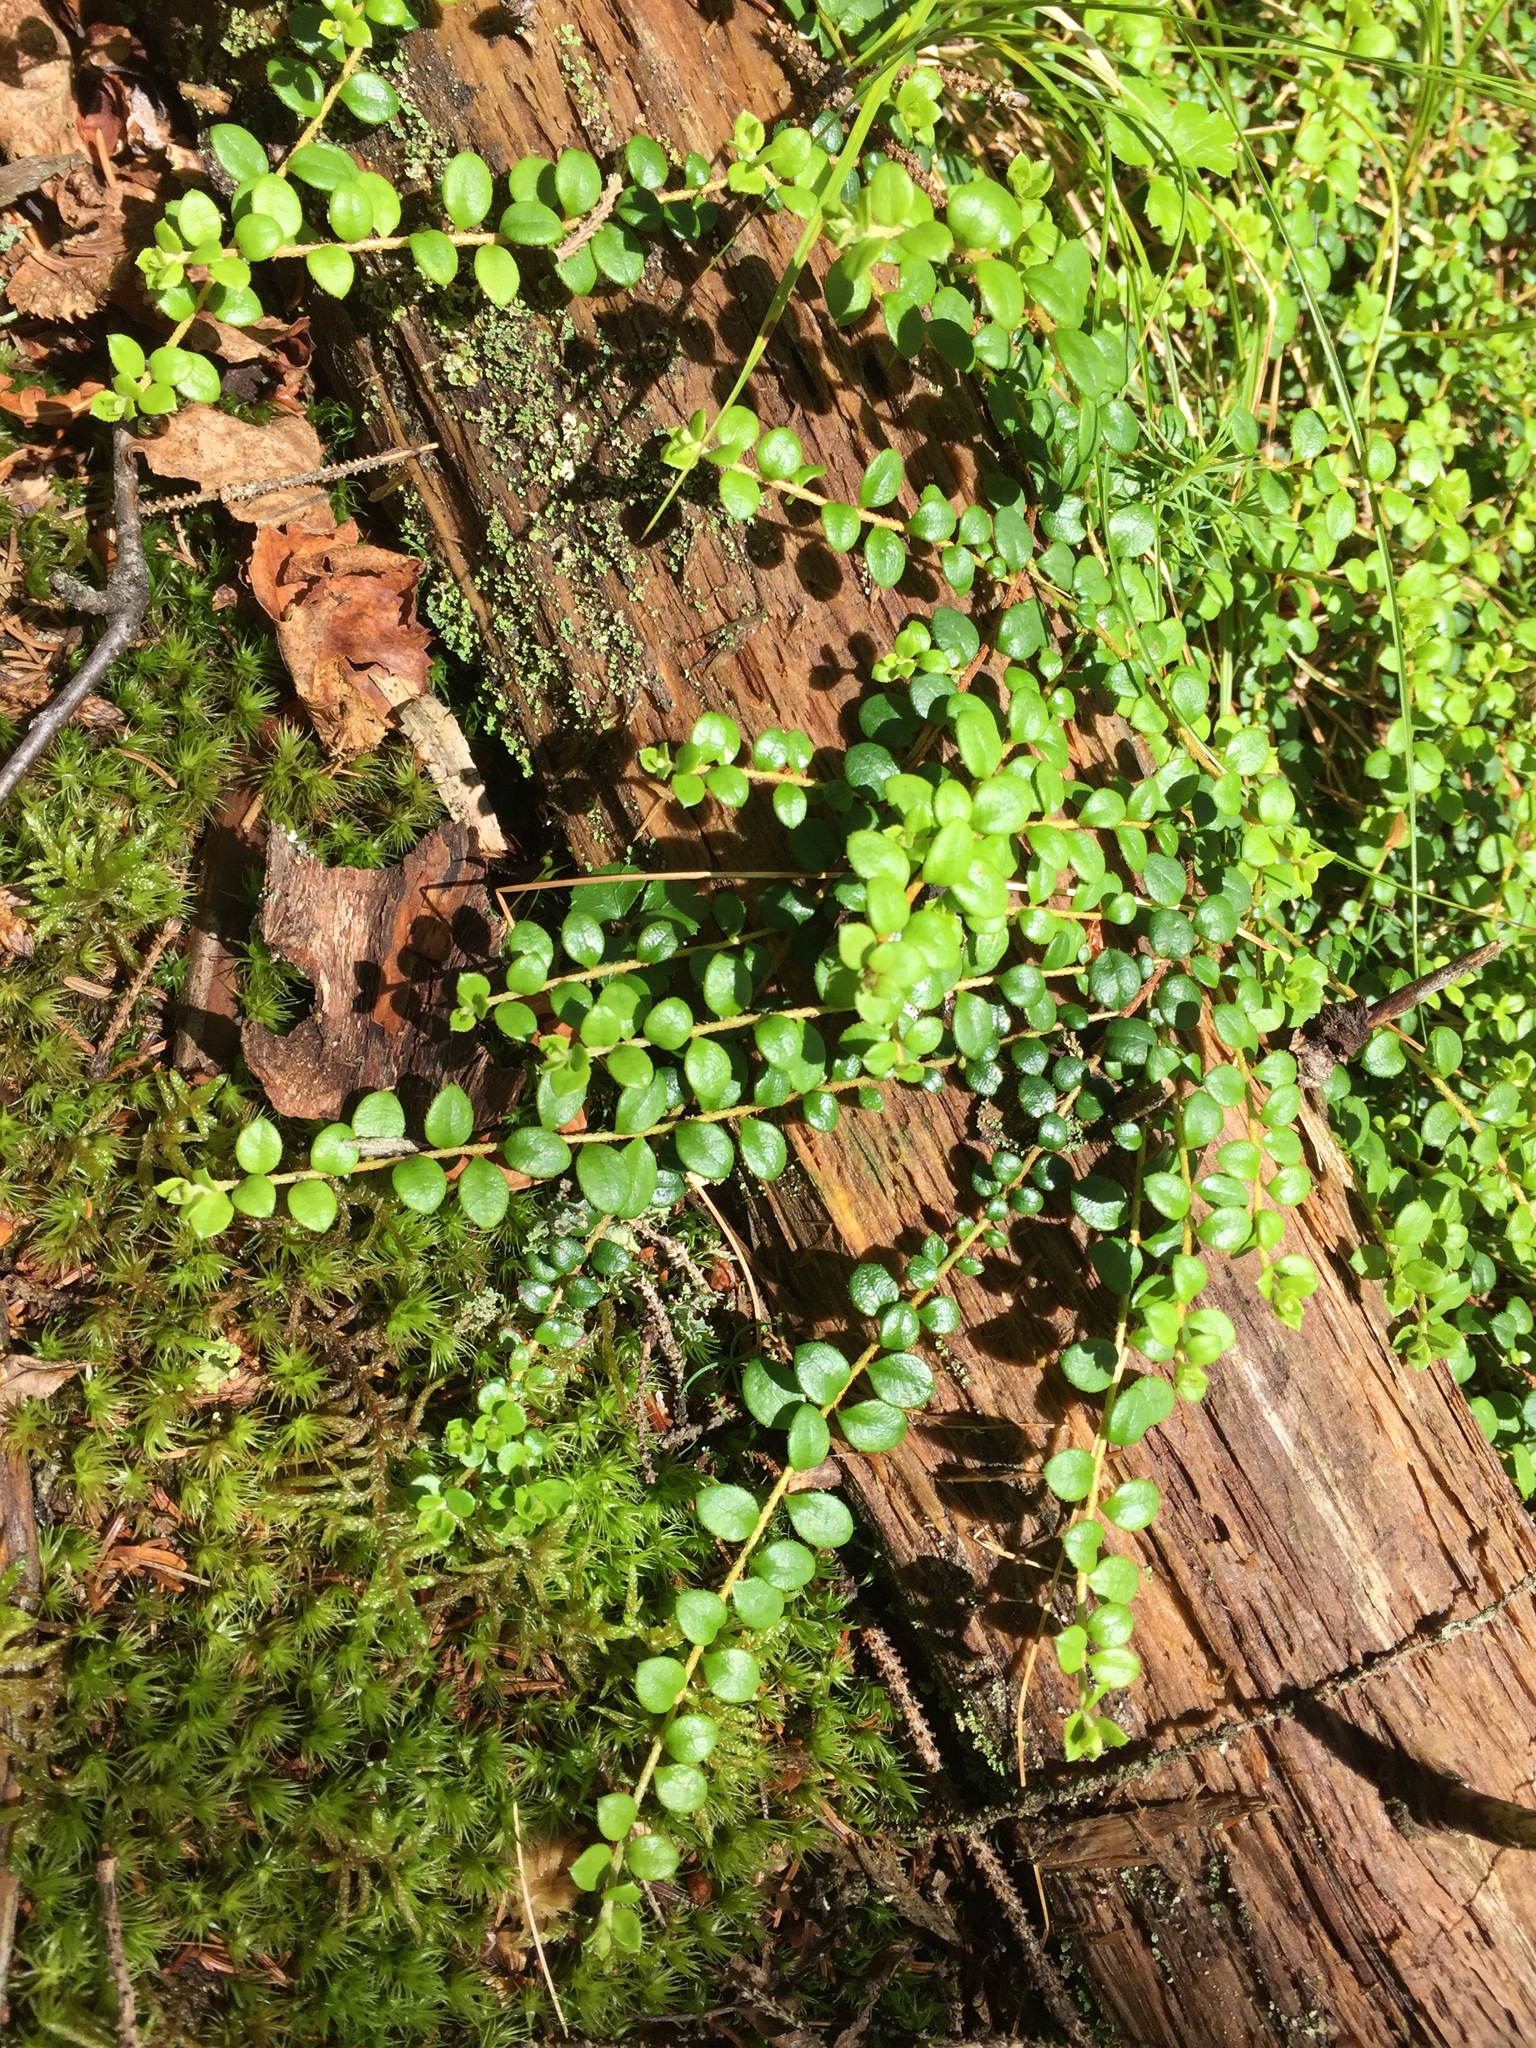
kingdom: Plantae
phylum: Tracheophyta
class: Magnoliopsida
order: Ericales
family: Ericaceae
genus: Gaultheria
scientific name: Gaultheria hispidula
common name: Cancer wintergreen
